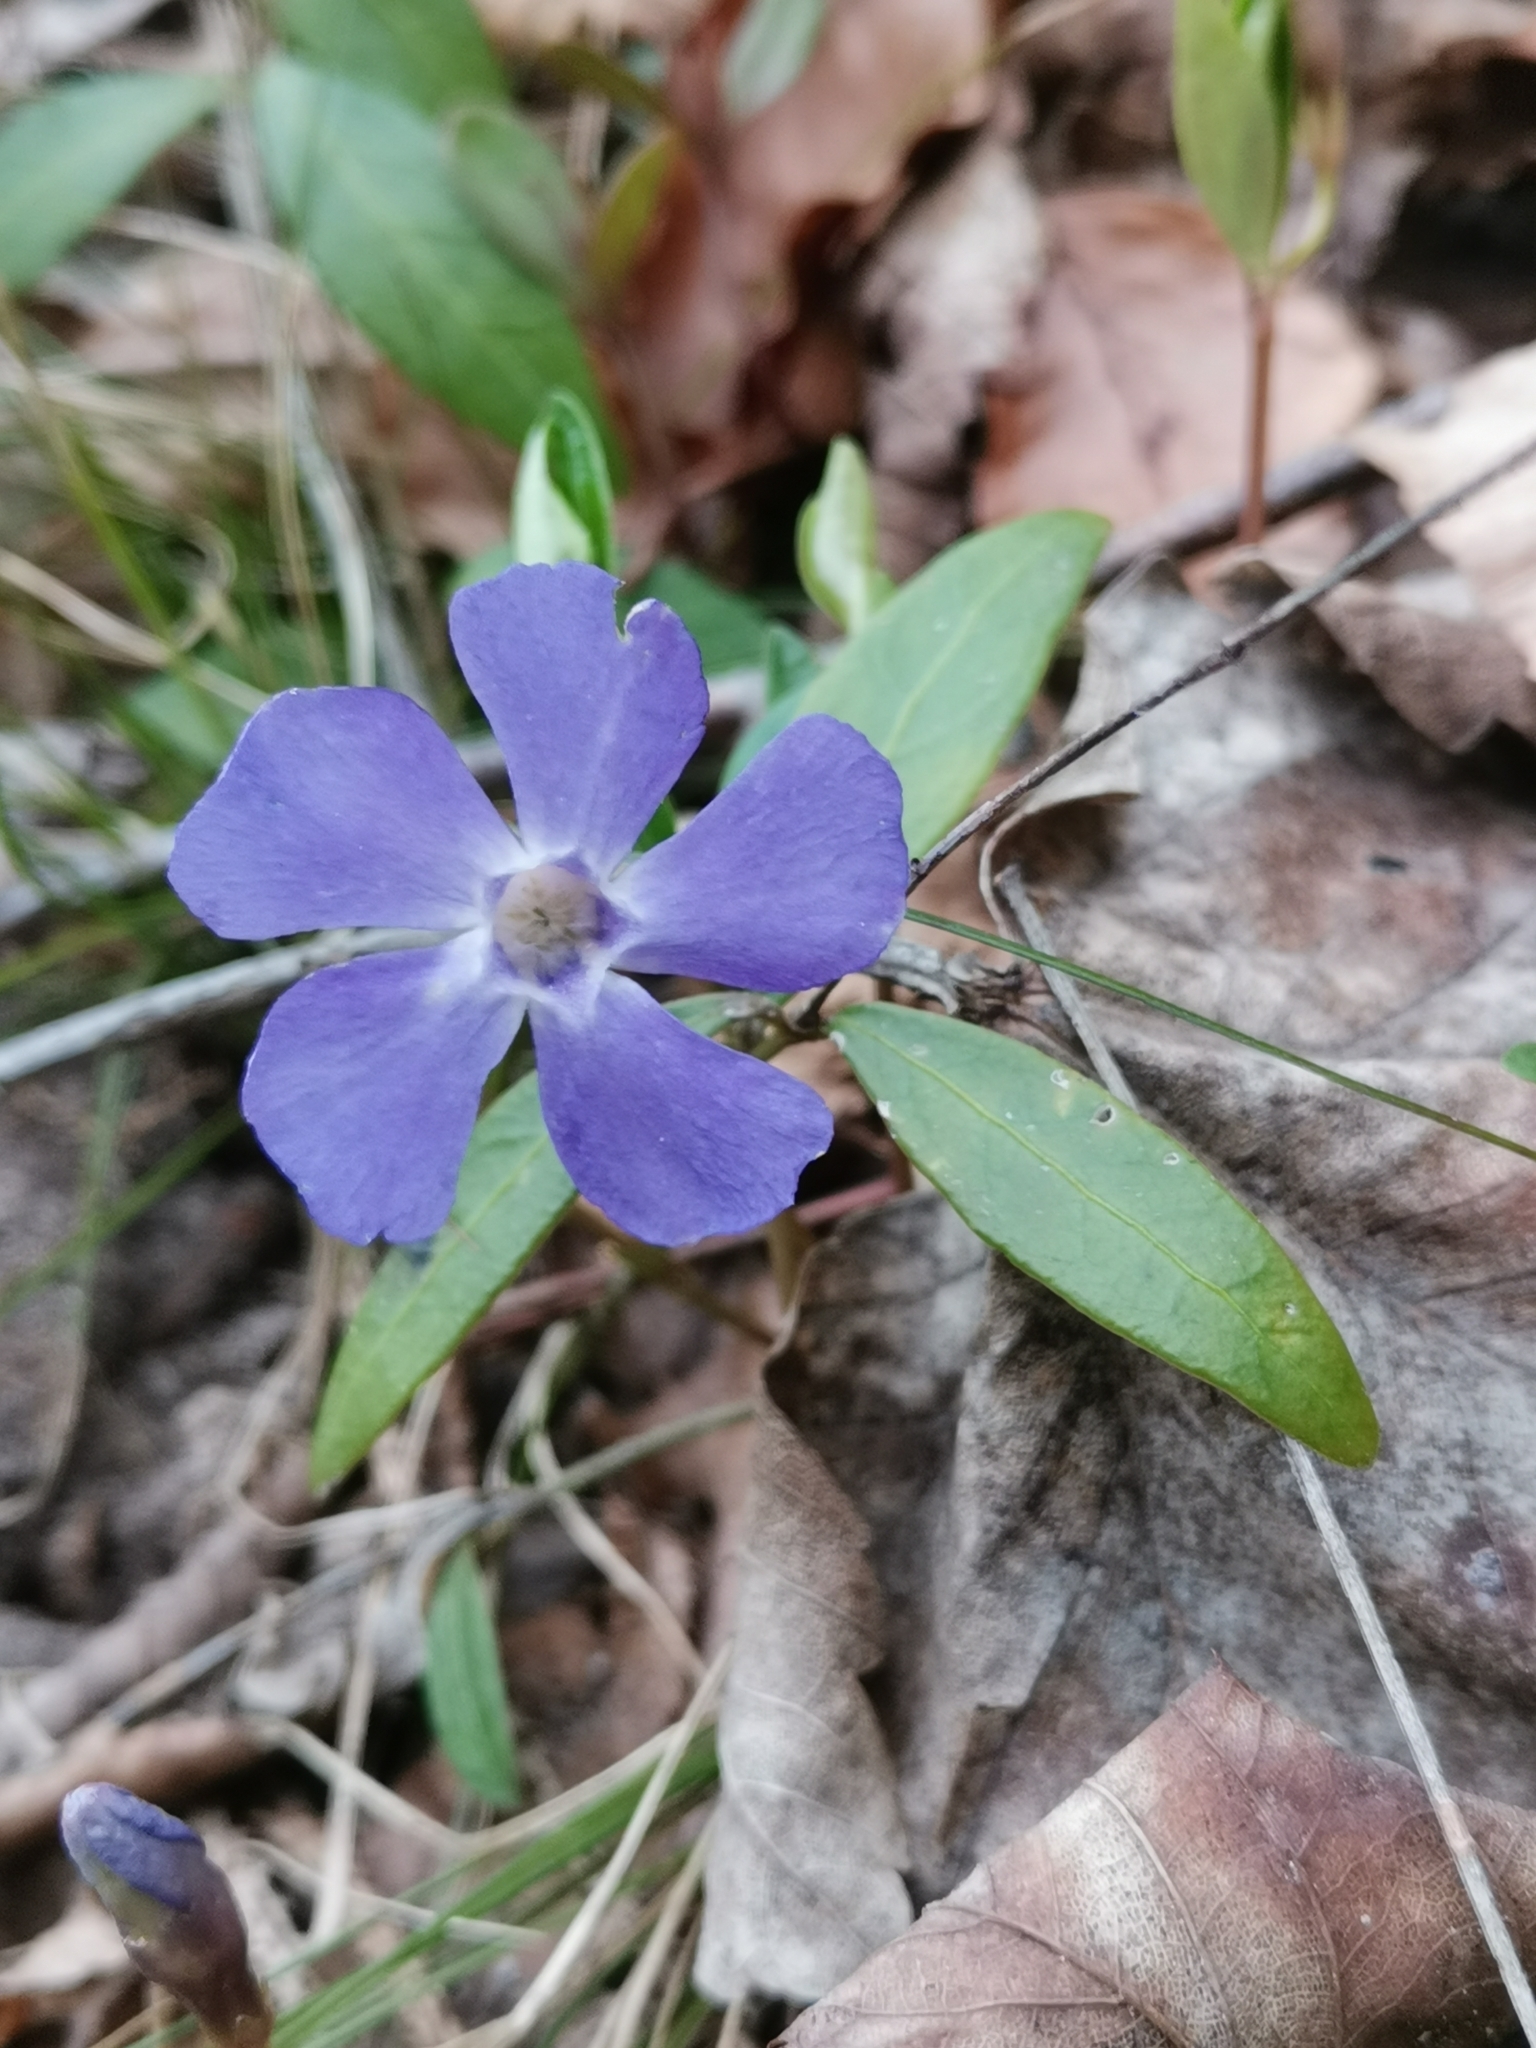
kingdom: Plantae
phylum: Tracheophyta
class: Magnoliopsida
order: Gentianales
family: Apocynaceae
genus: Vinca
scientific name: Vinca minor
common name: Lesser periwinkle
